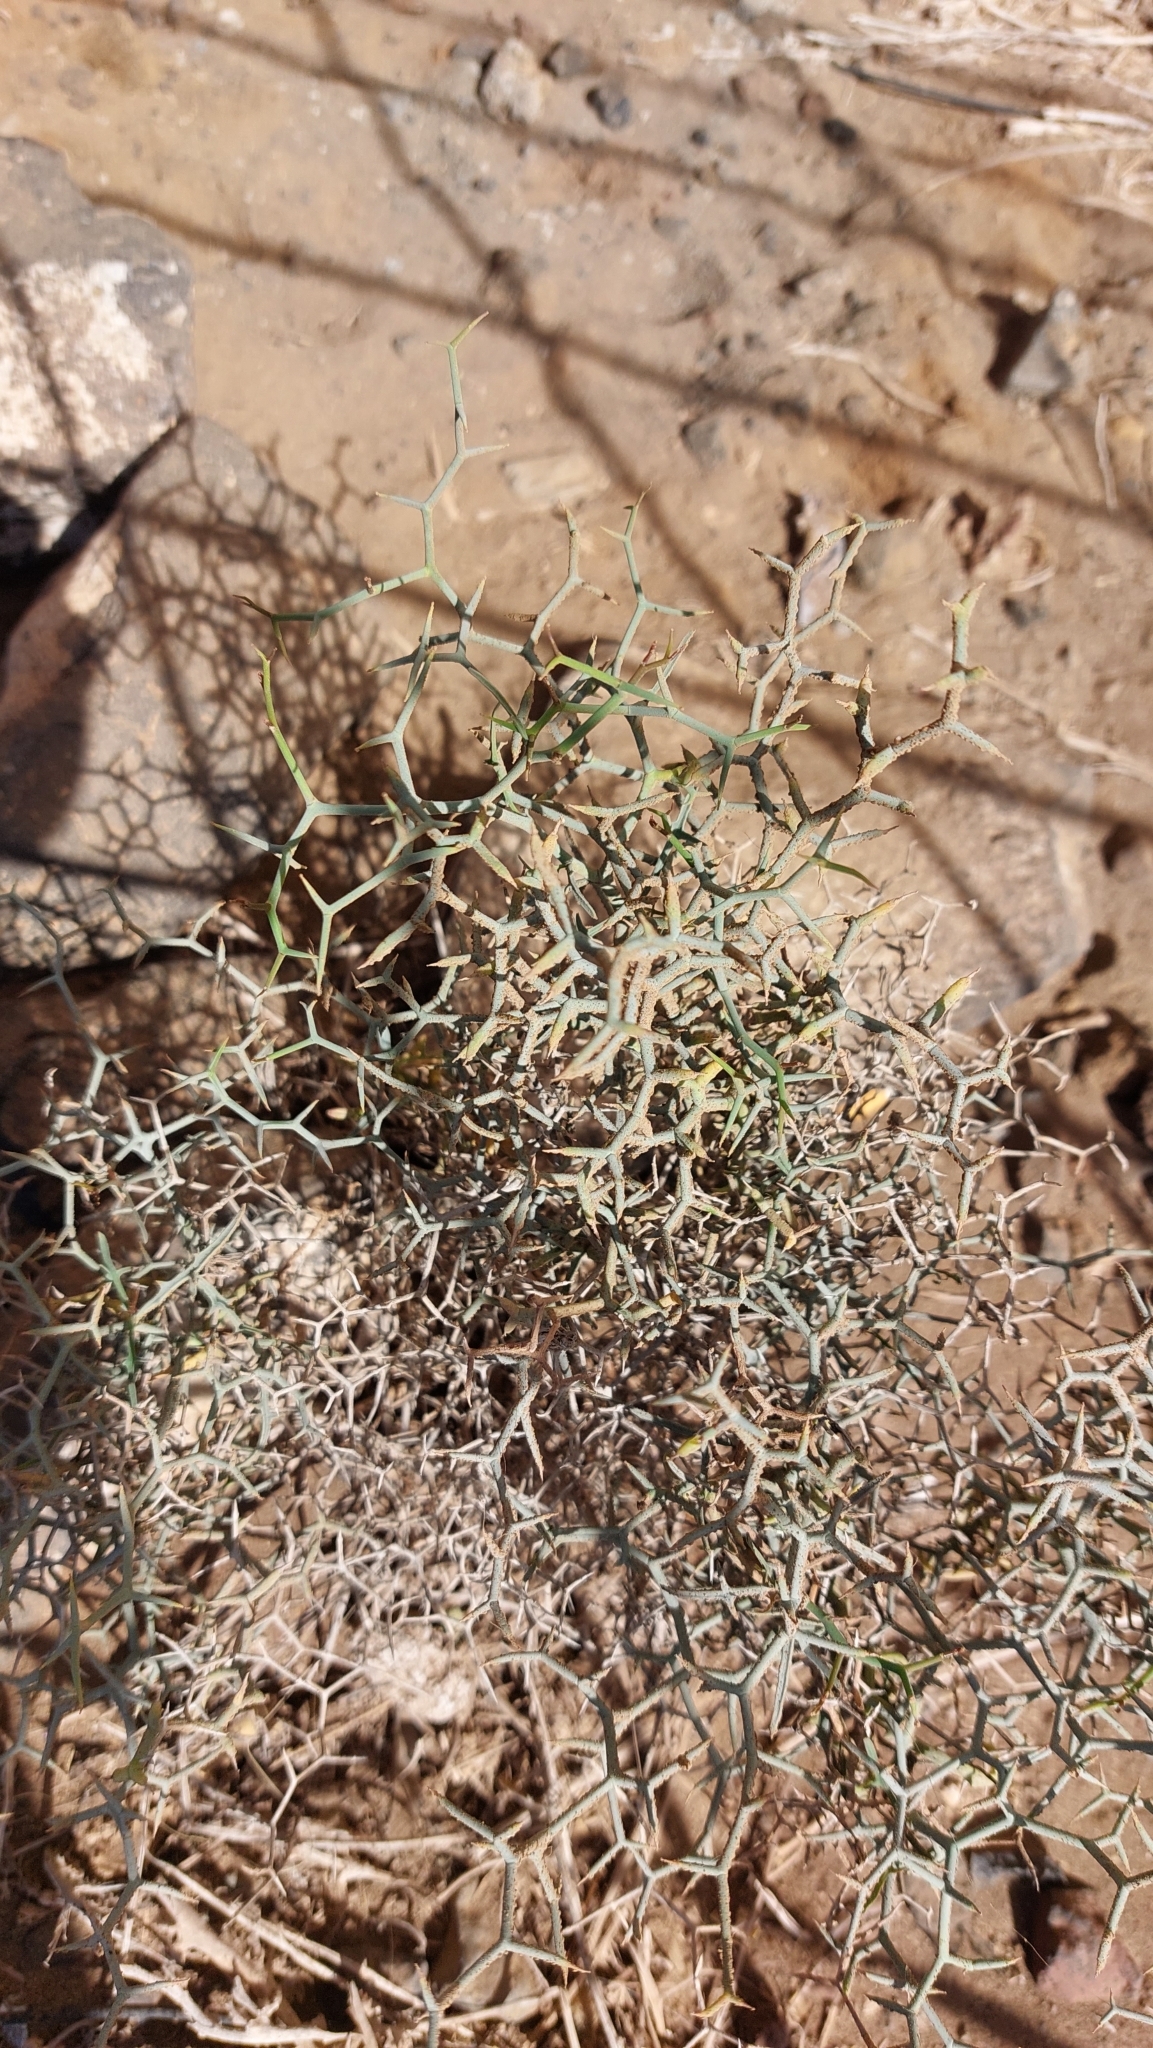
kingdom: Plantae
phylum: Tracheophyta
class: Magnoliopsida
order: Asterales
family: Asteraceae
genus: Launaea
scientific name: Launaea arborescens
